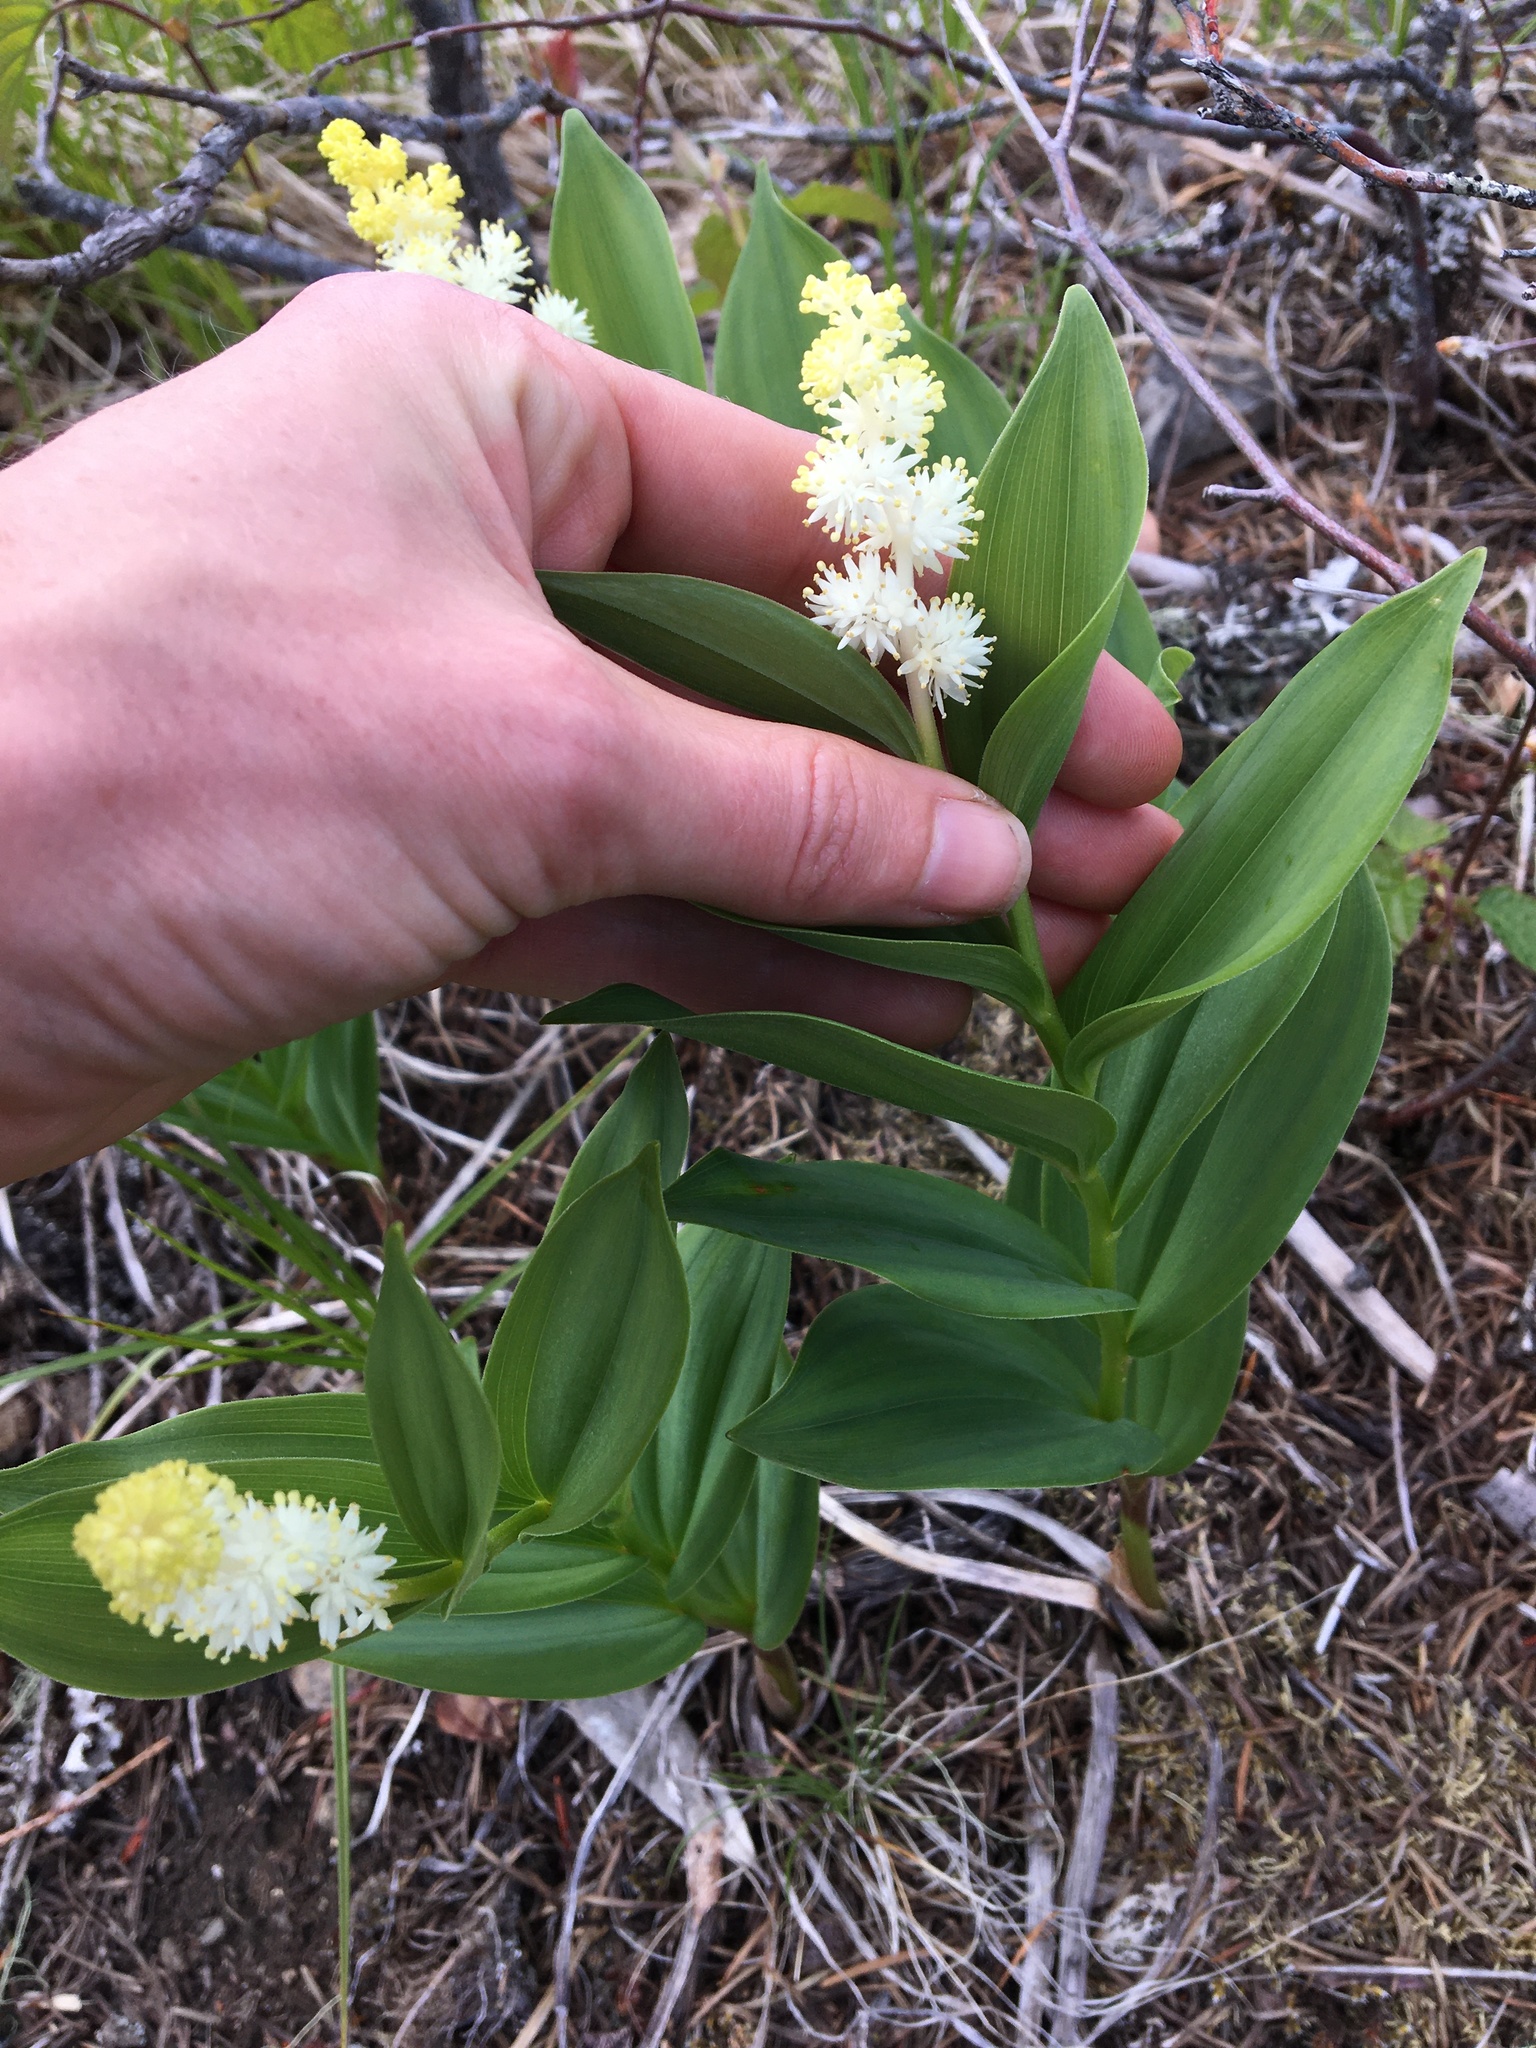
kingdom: Plantae
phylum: Tracheophyta
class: Liliopsida
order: Asparagales
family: Asparagaceae
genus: Maianthemum
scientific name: Maianthemum racemosum
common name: False spikenard
